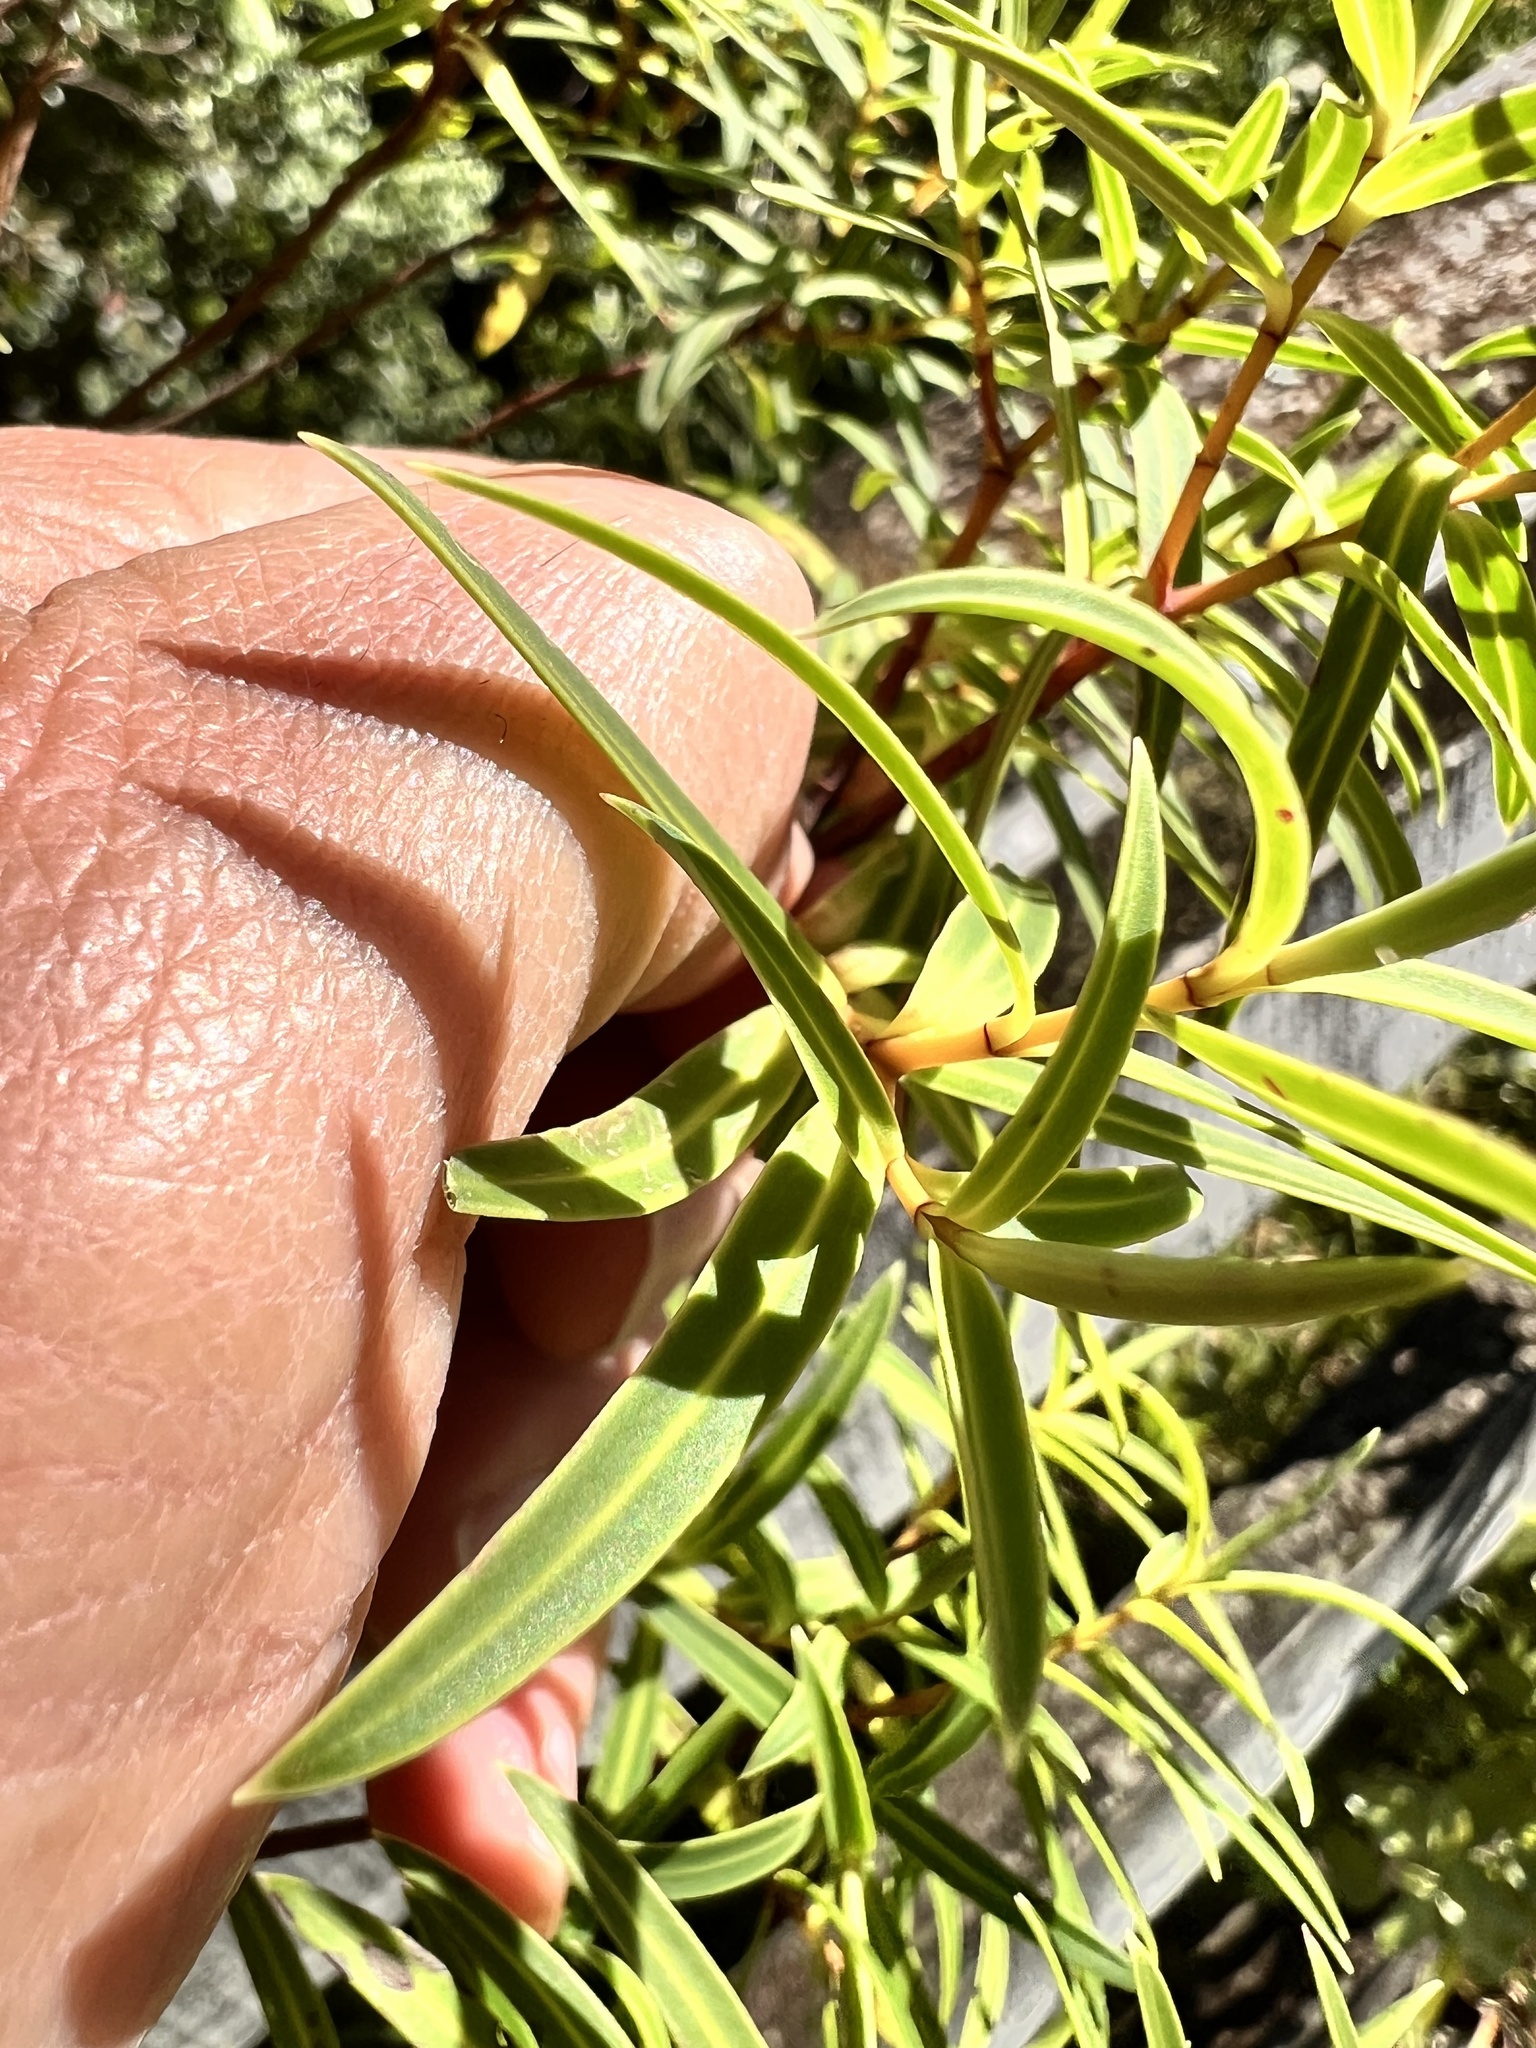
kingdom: Plantae
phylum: Tracheophyta
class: Magnoliopsida
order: Lamiales
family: Plantaginaceae
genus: Veronica
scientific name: Veronica parviflora
